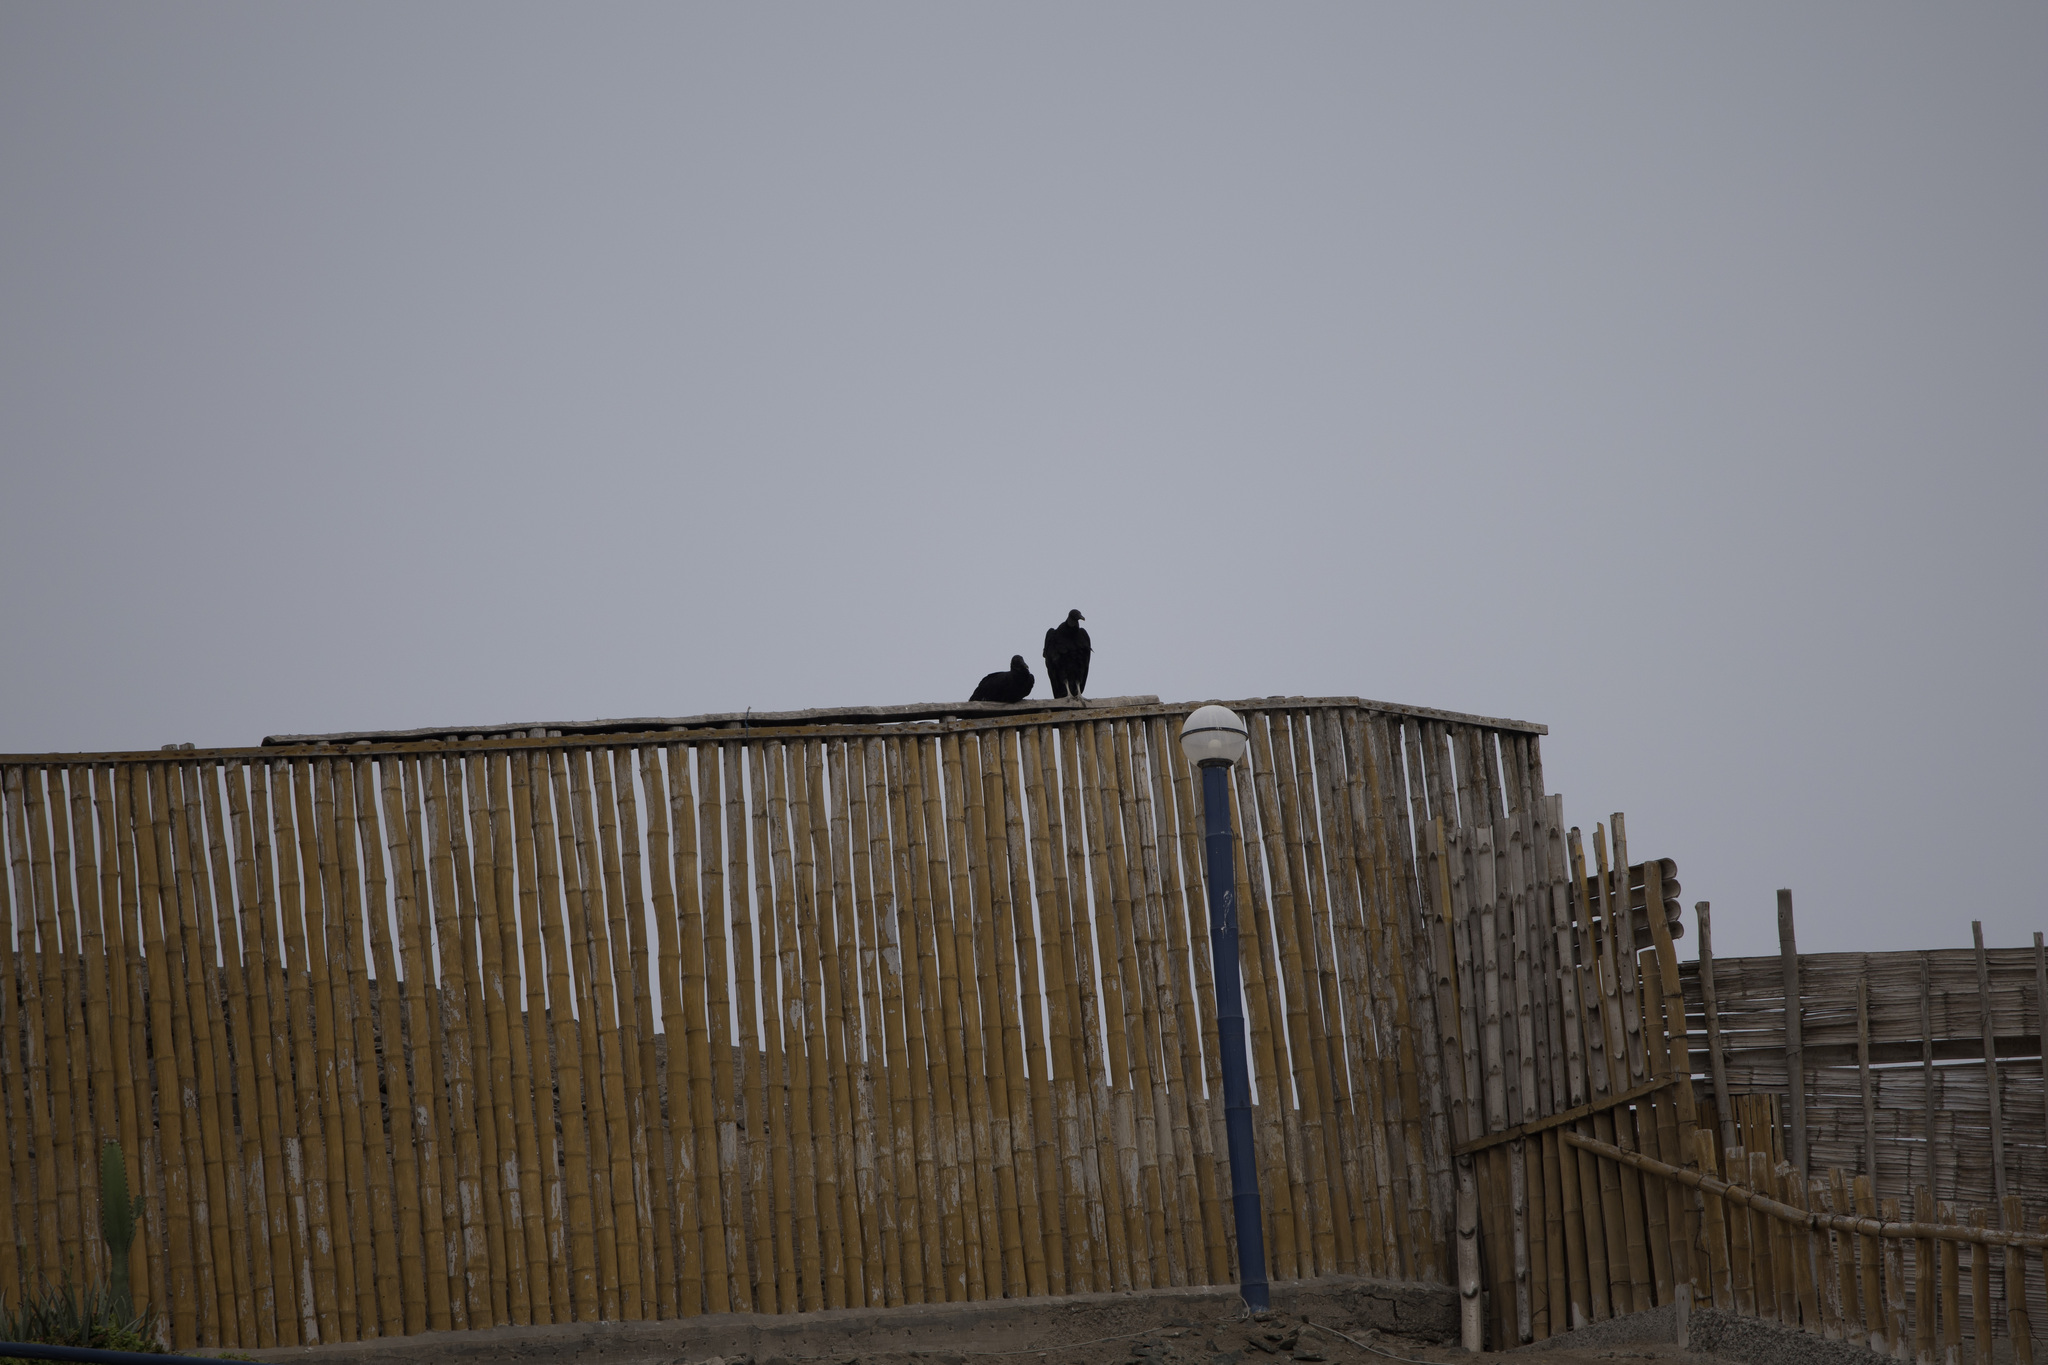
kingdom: Animalia
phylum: Chordata
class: Aves
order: Accipitriformes
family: Cathartidae
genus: Coragyps
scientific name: Coragyps atratus
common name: Black vulture
